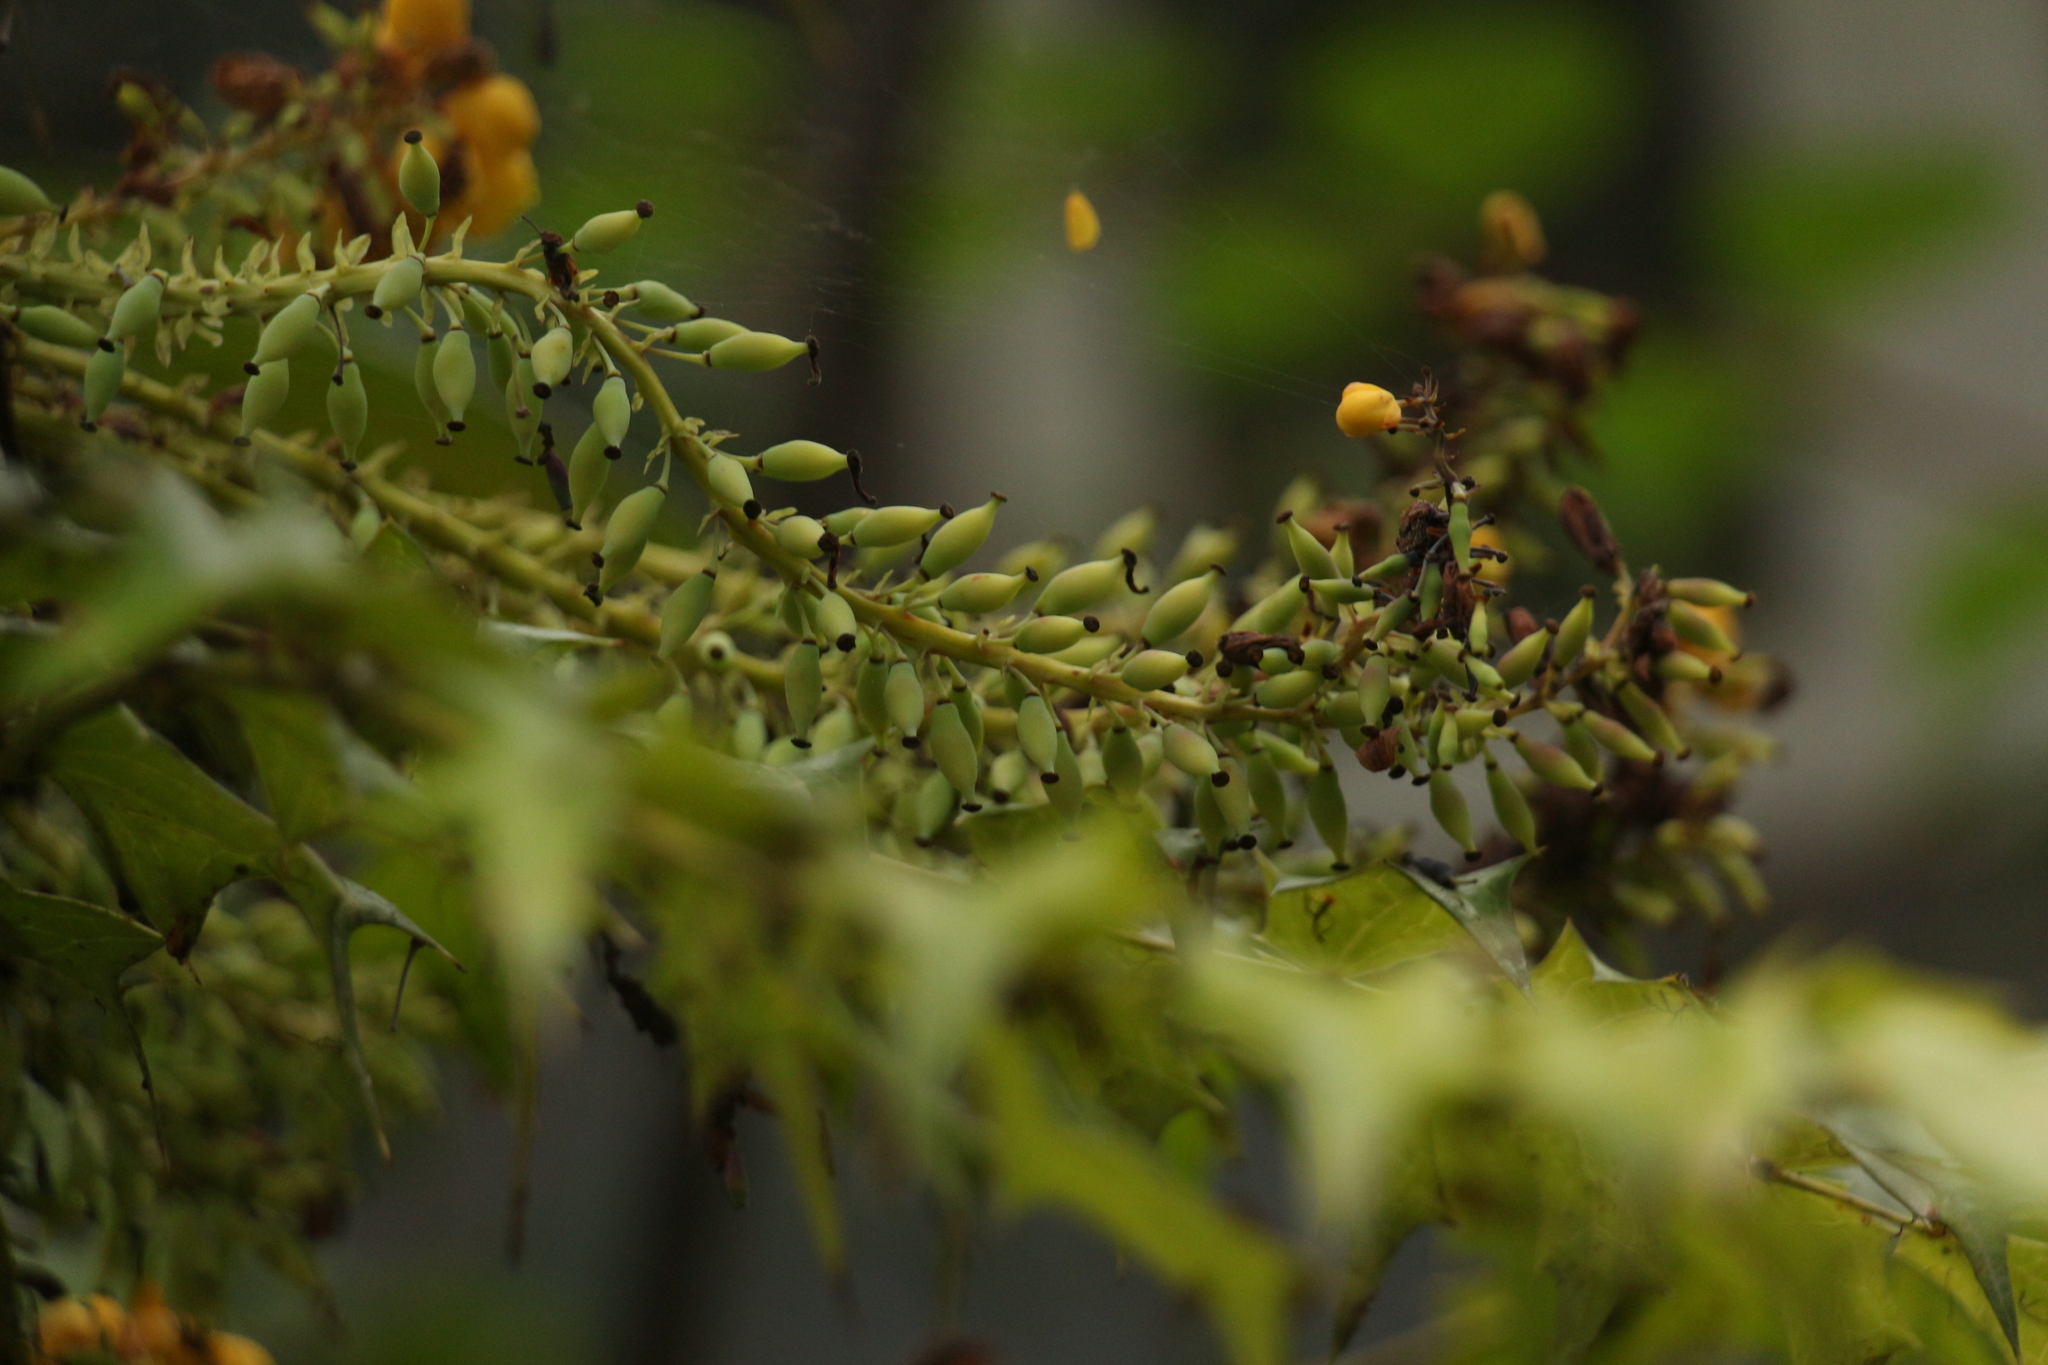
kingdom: Plantae
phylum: Tracheophyta
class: Magnoliopsida
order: Ranunculales
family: Berberidaceae
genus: Mahonia
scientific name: Mahonia napaulensis
